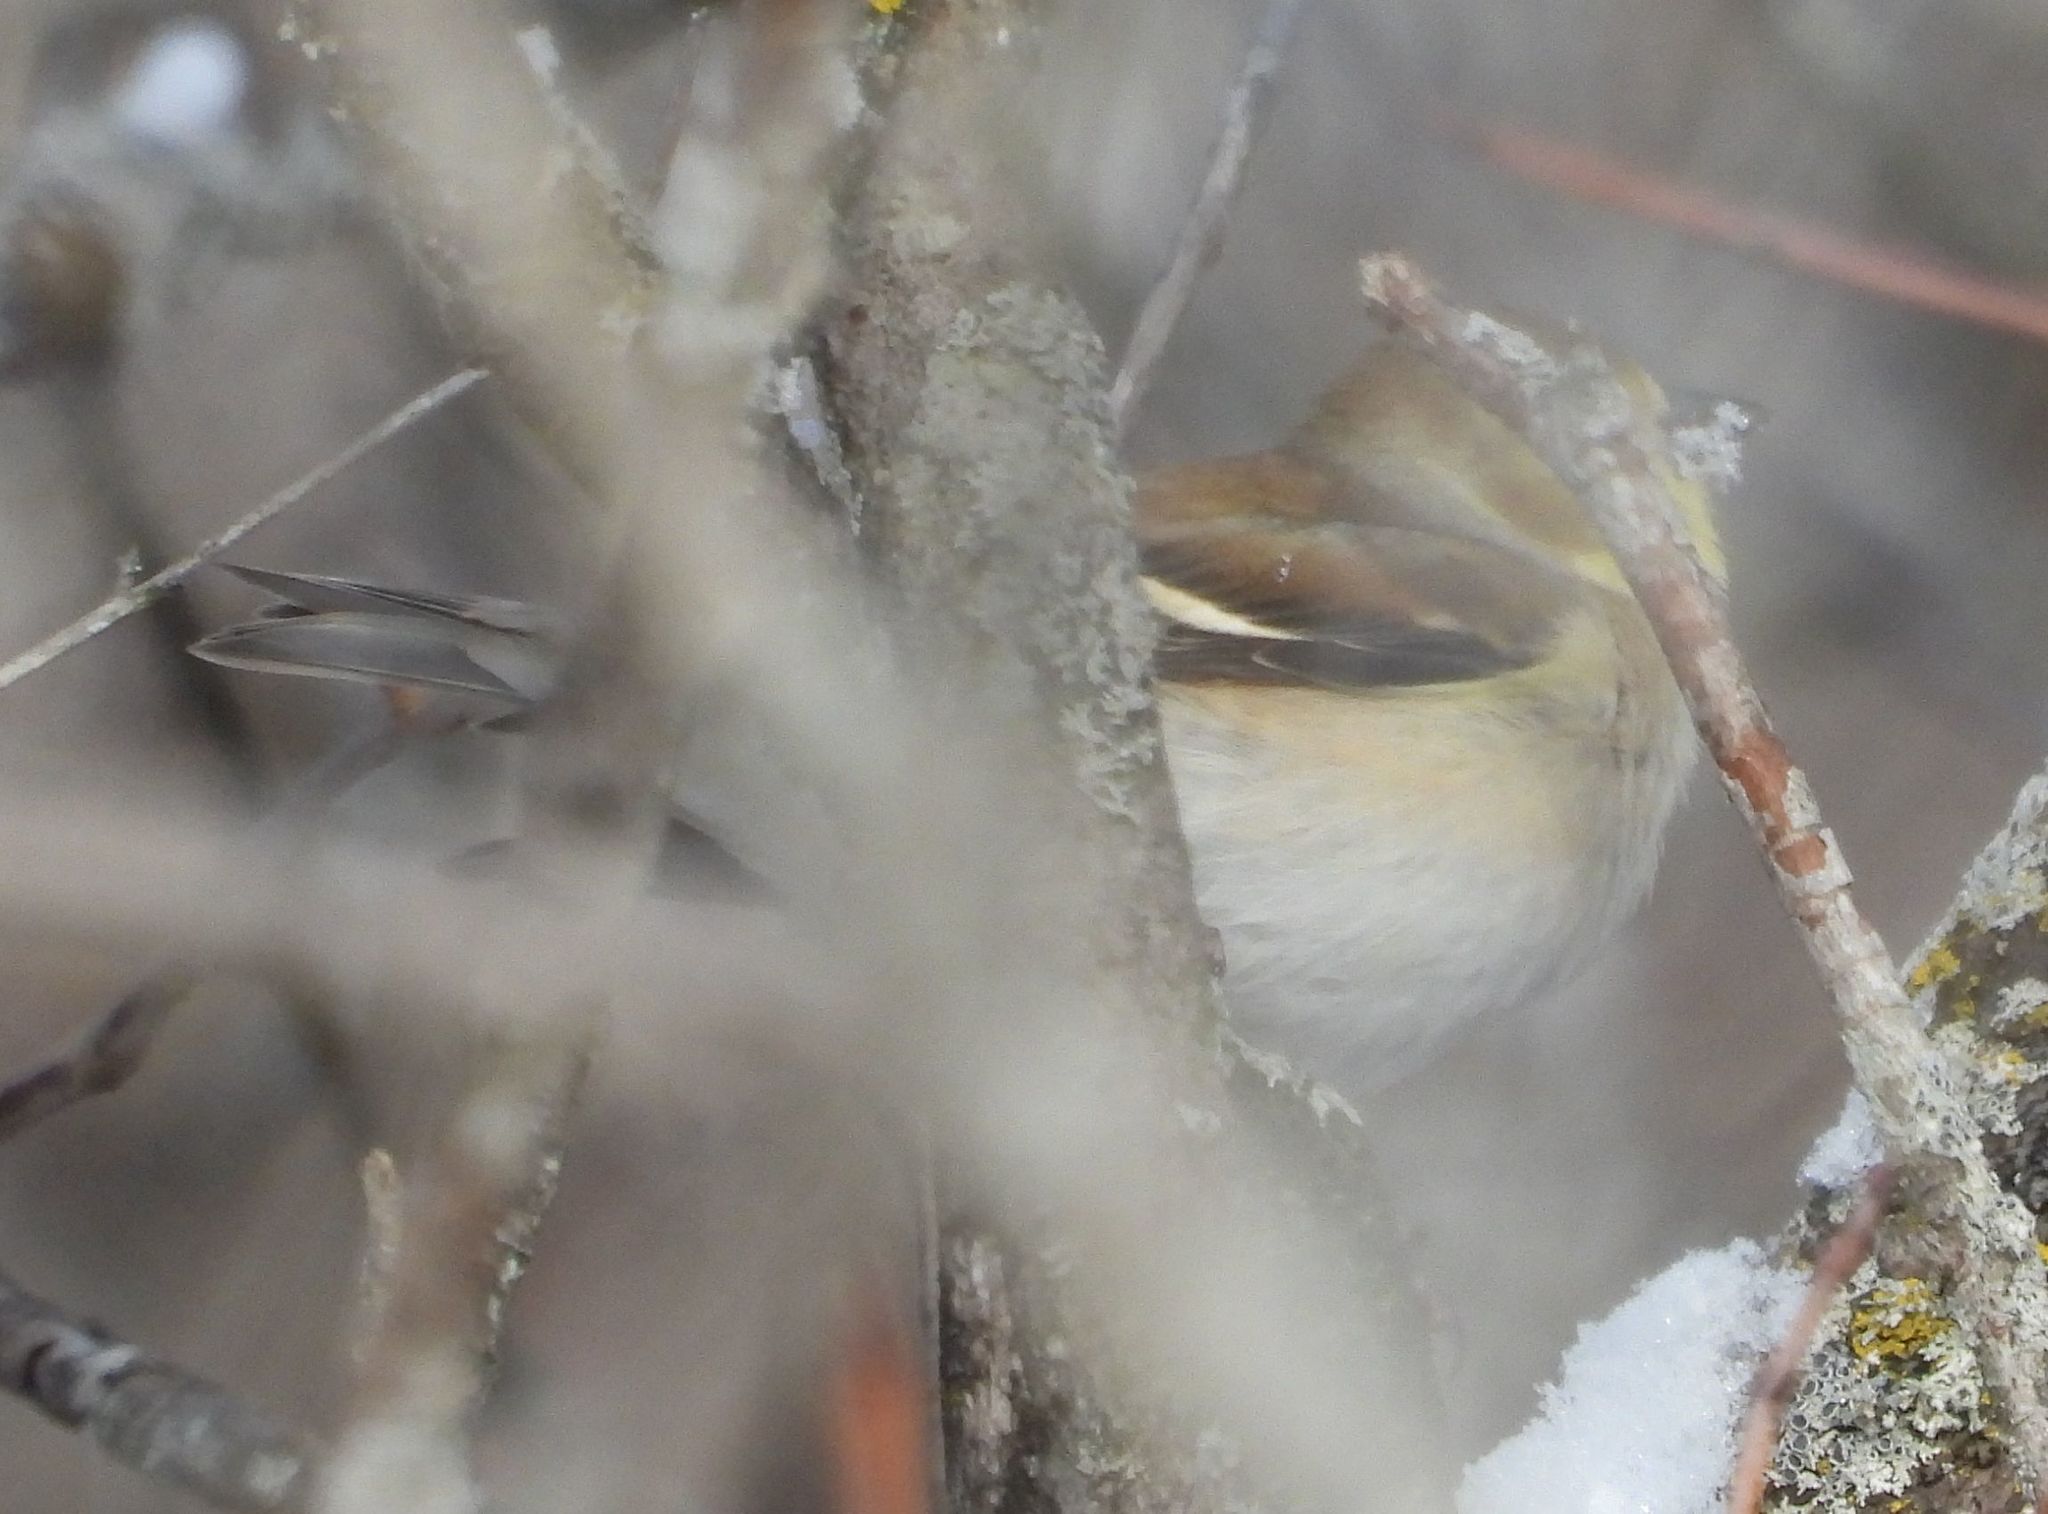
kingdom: Animalia
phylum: Chordata
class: Aves
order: Passeriformes
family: Fringillidae
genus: Spinus
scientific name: Spinus tristis
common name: American goldfinch
